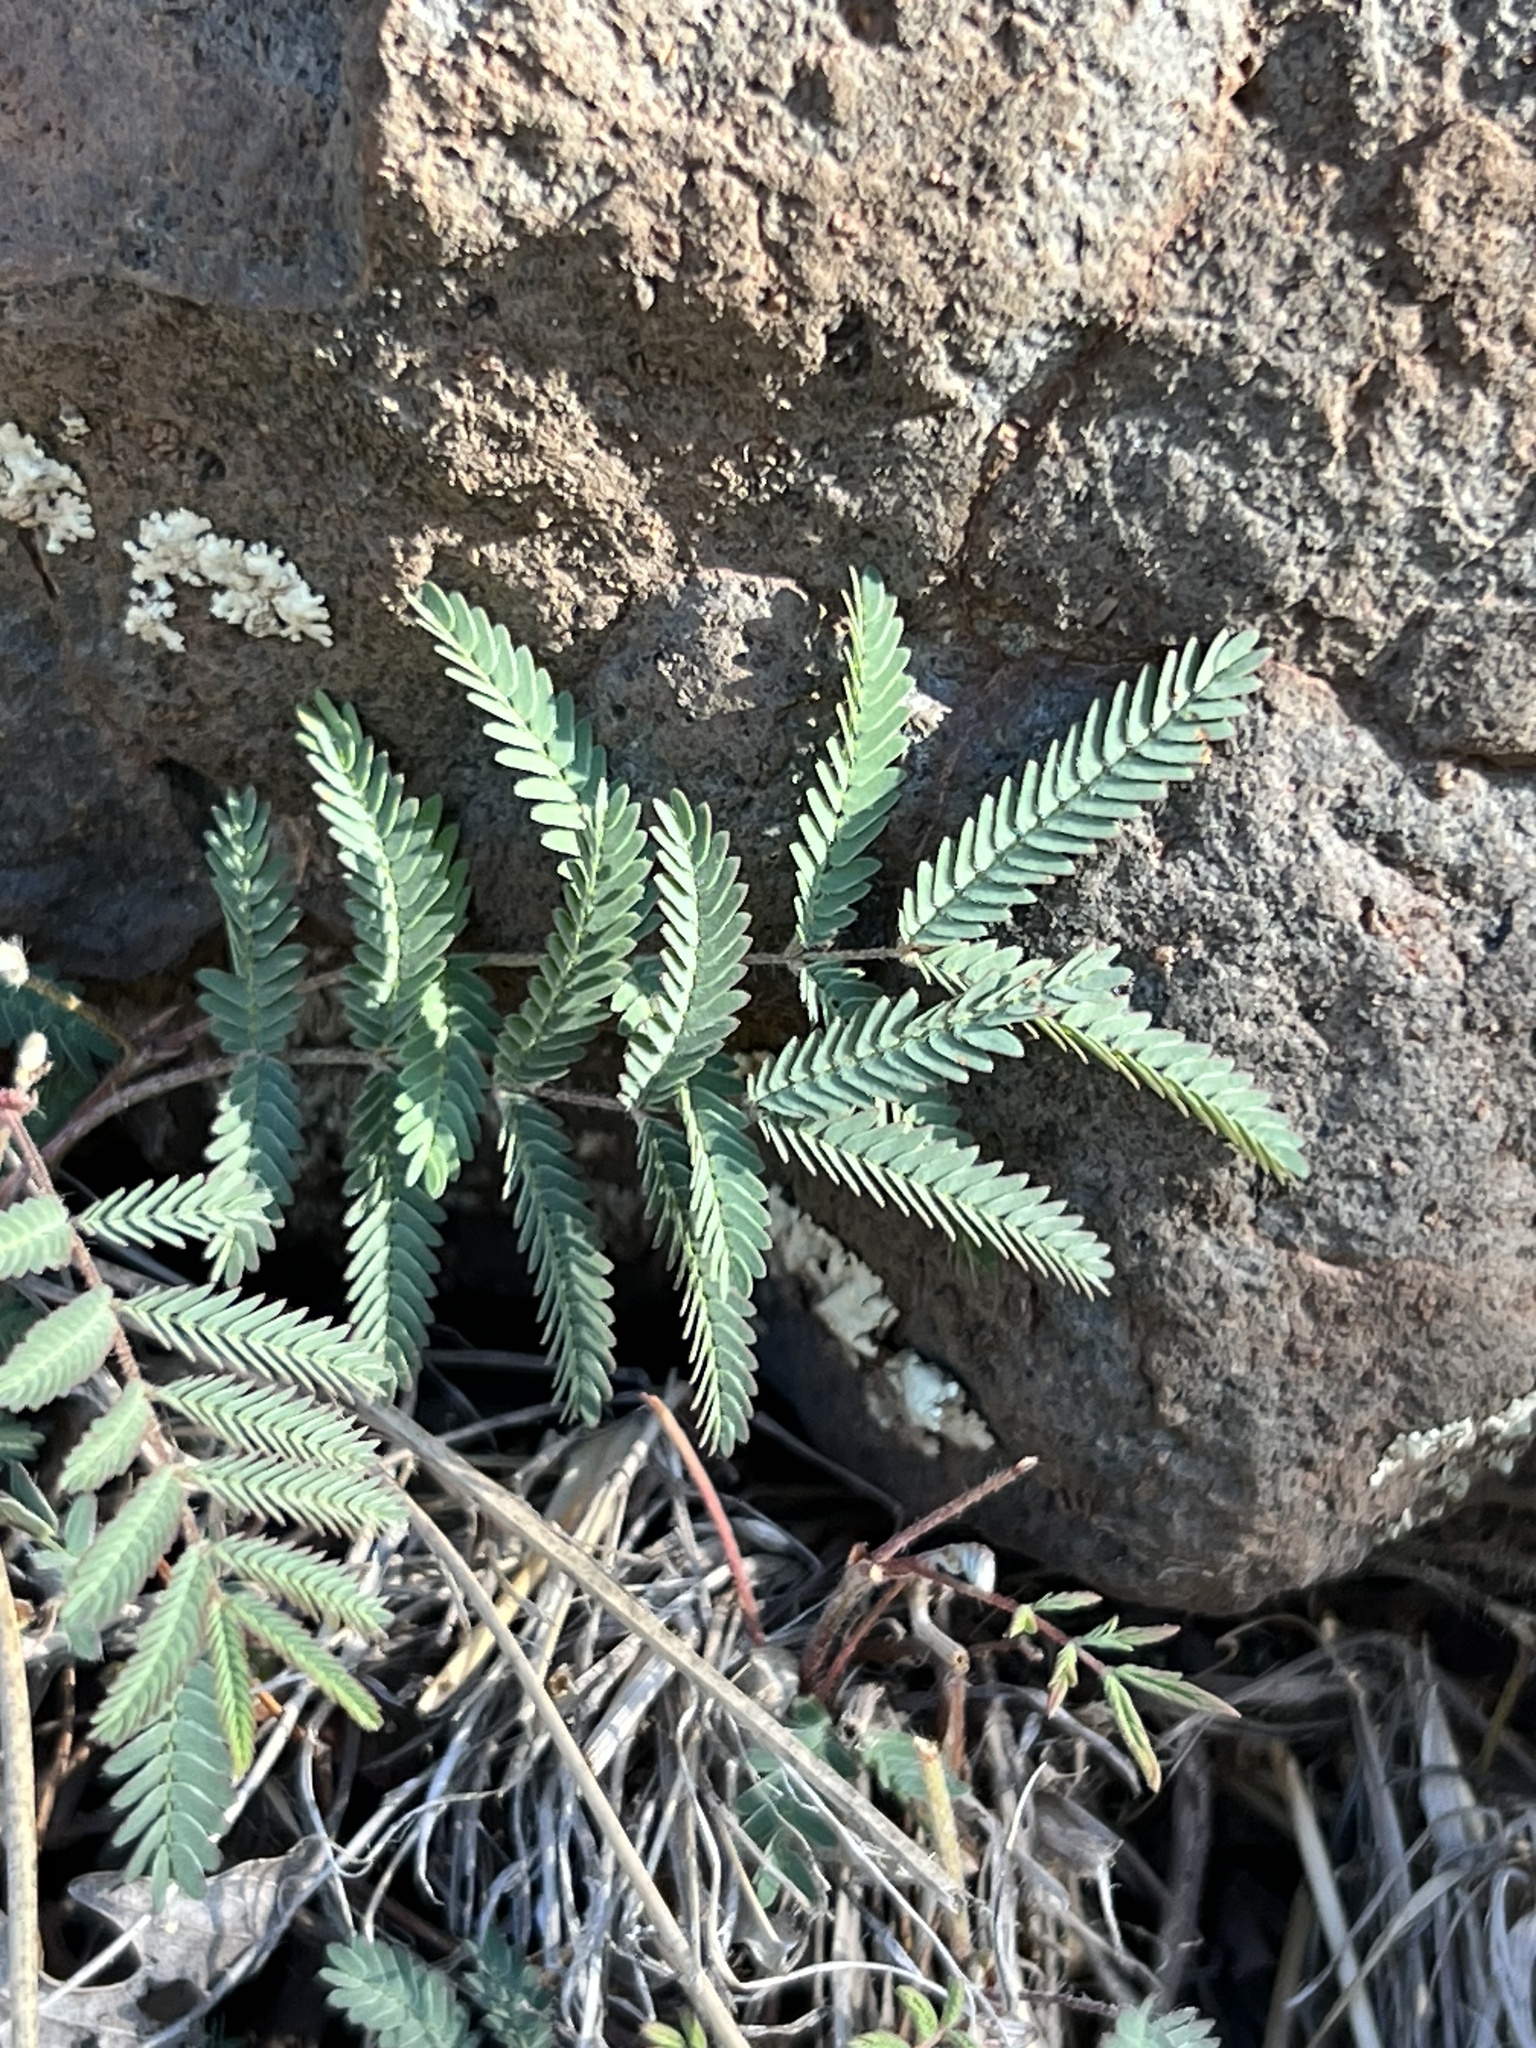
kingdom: Plantae
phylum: Tracheophyta
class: Magnoliopsida
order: Fabales
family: Fabaceae
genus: Calliandra
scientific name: Calliandra humilis
